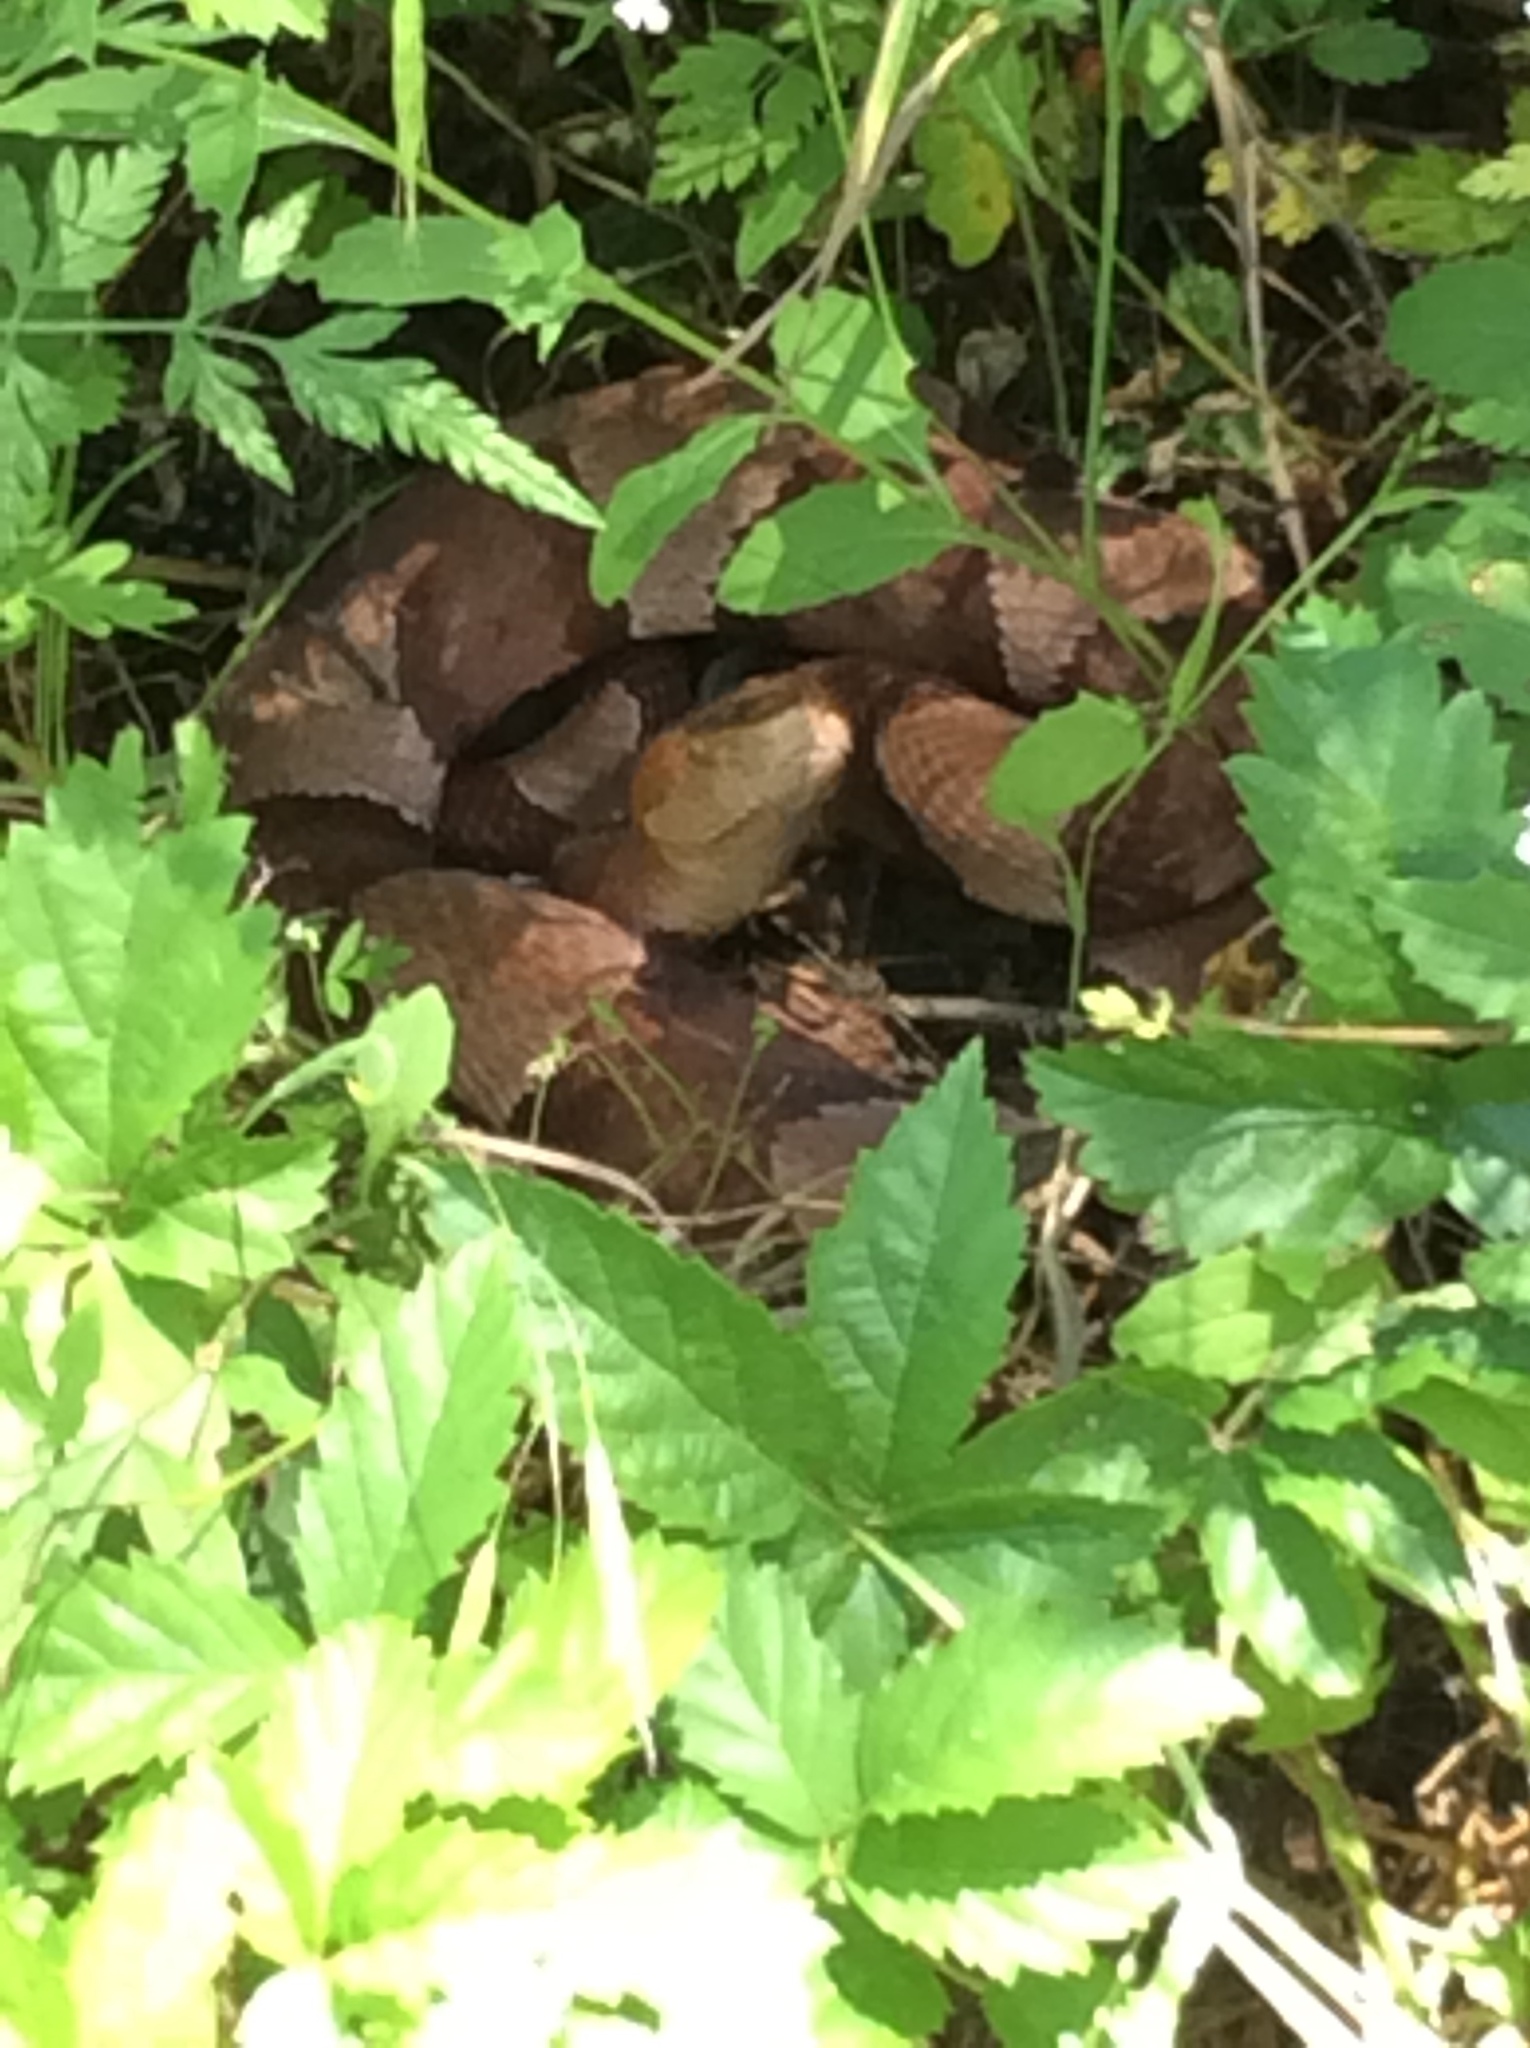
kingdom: Animalia
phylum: Chordata
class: Squamata
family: Viperidae
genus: Agkistrodon
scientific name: Agkistrodon laticinctus
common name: Broad-banded copperhead
